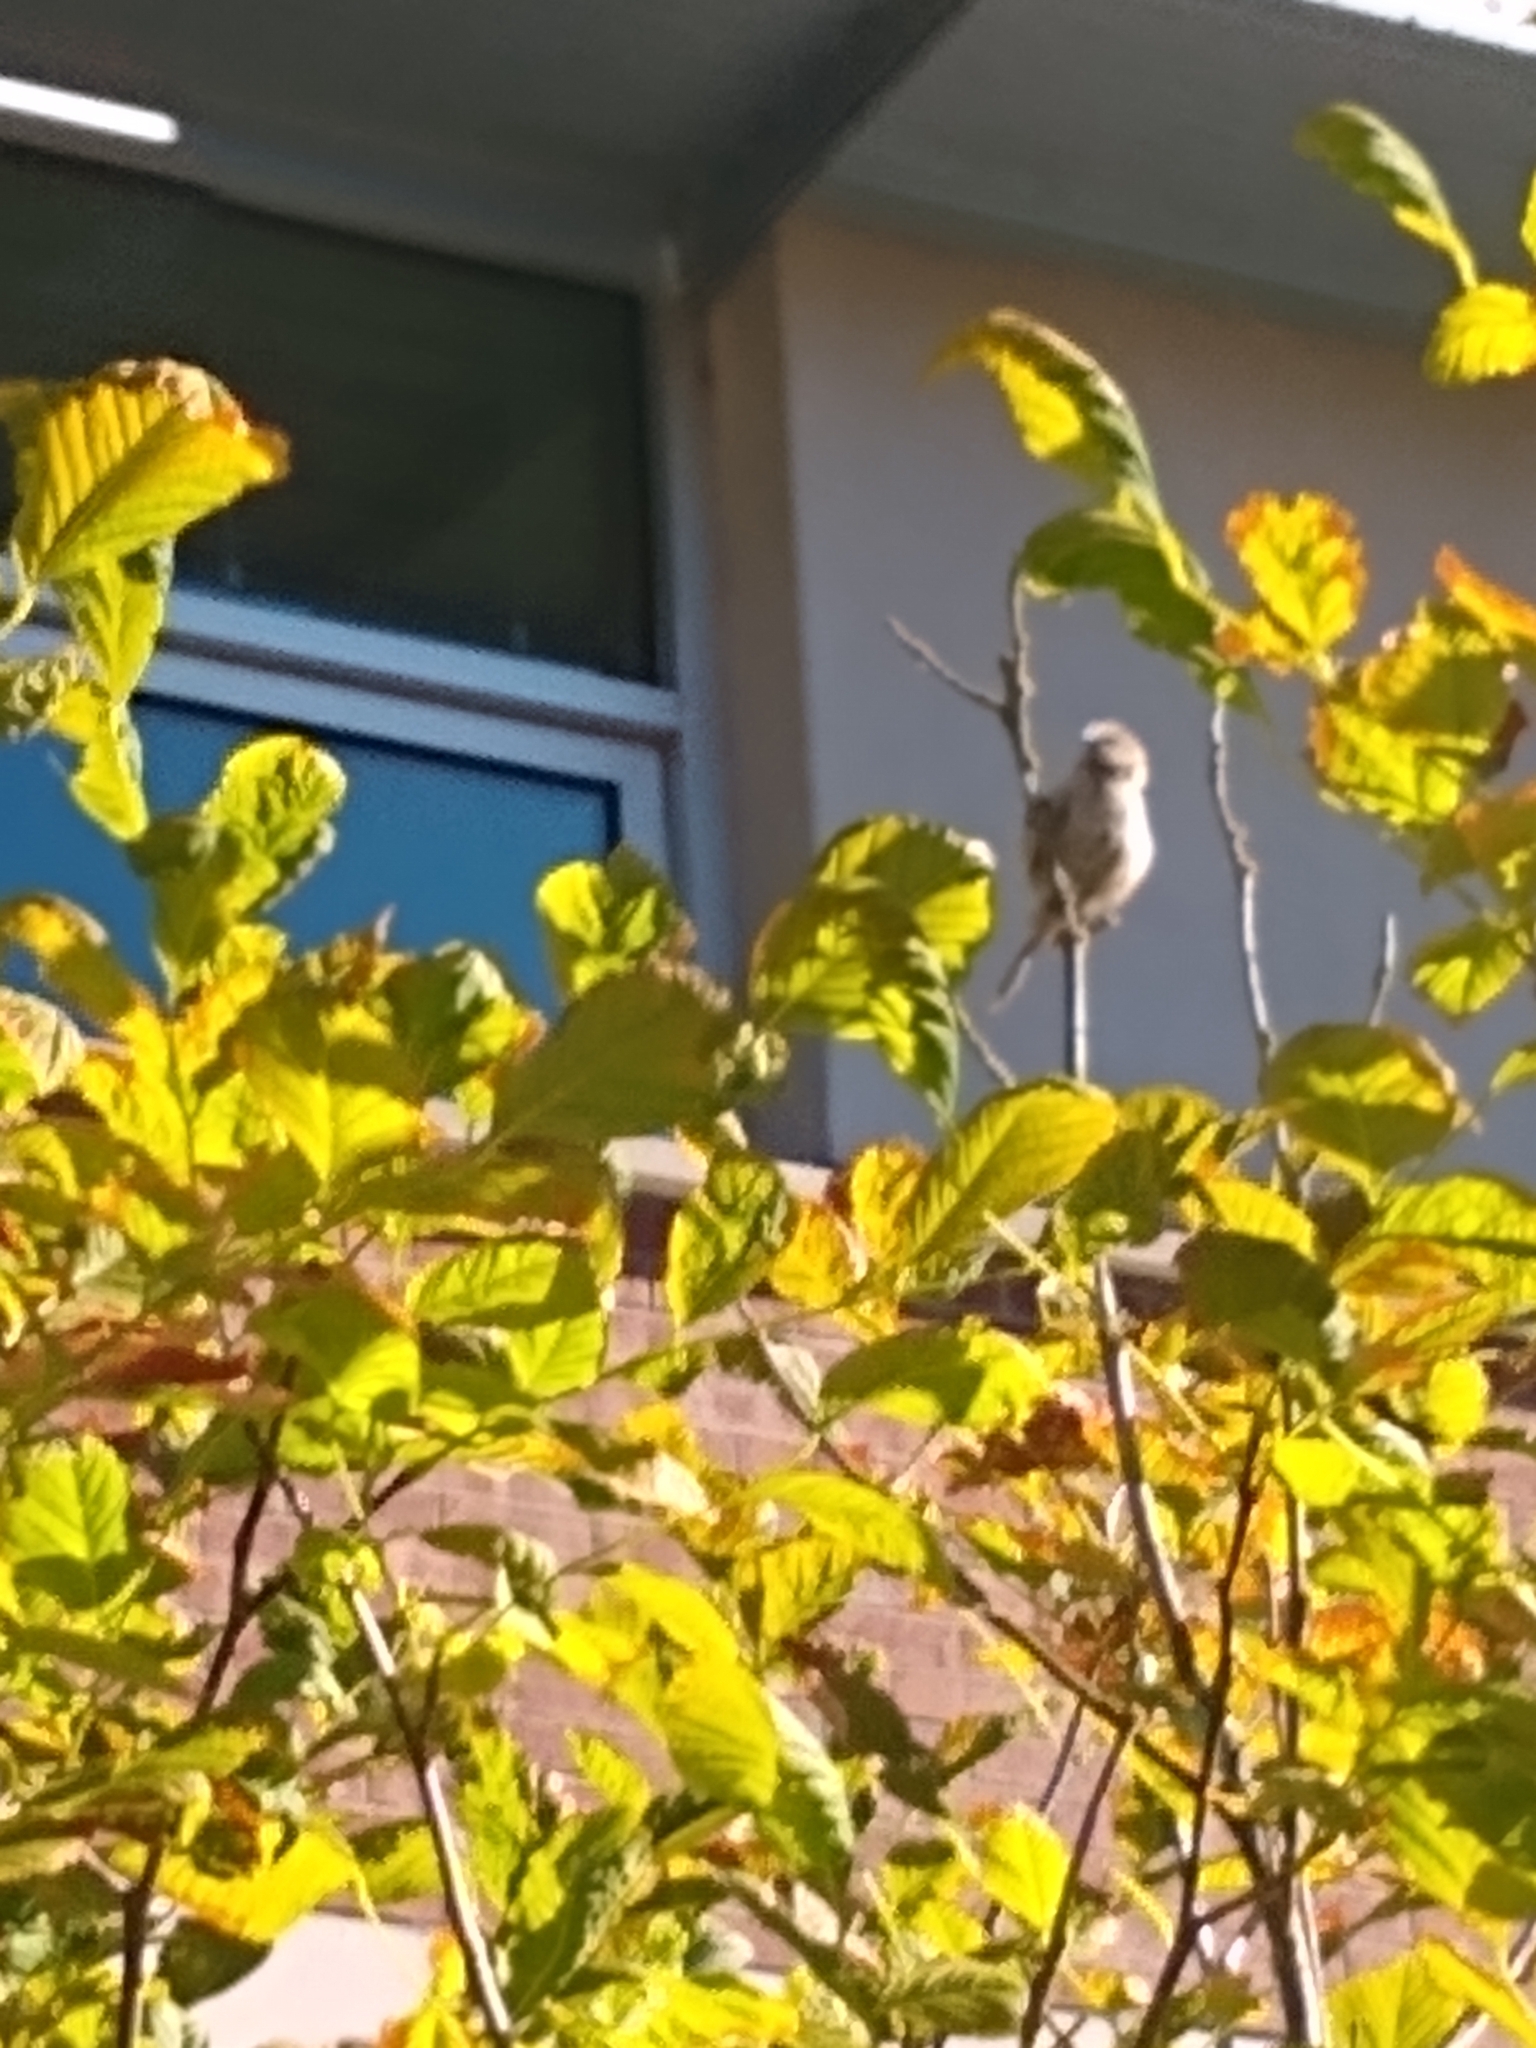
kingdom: Animalia
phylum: Chordata
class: Aves
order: Passeriformes
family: Aegithalidae
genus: Psaltriparus
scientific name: Psaltriparus minimus
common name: American bushtit
